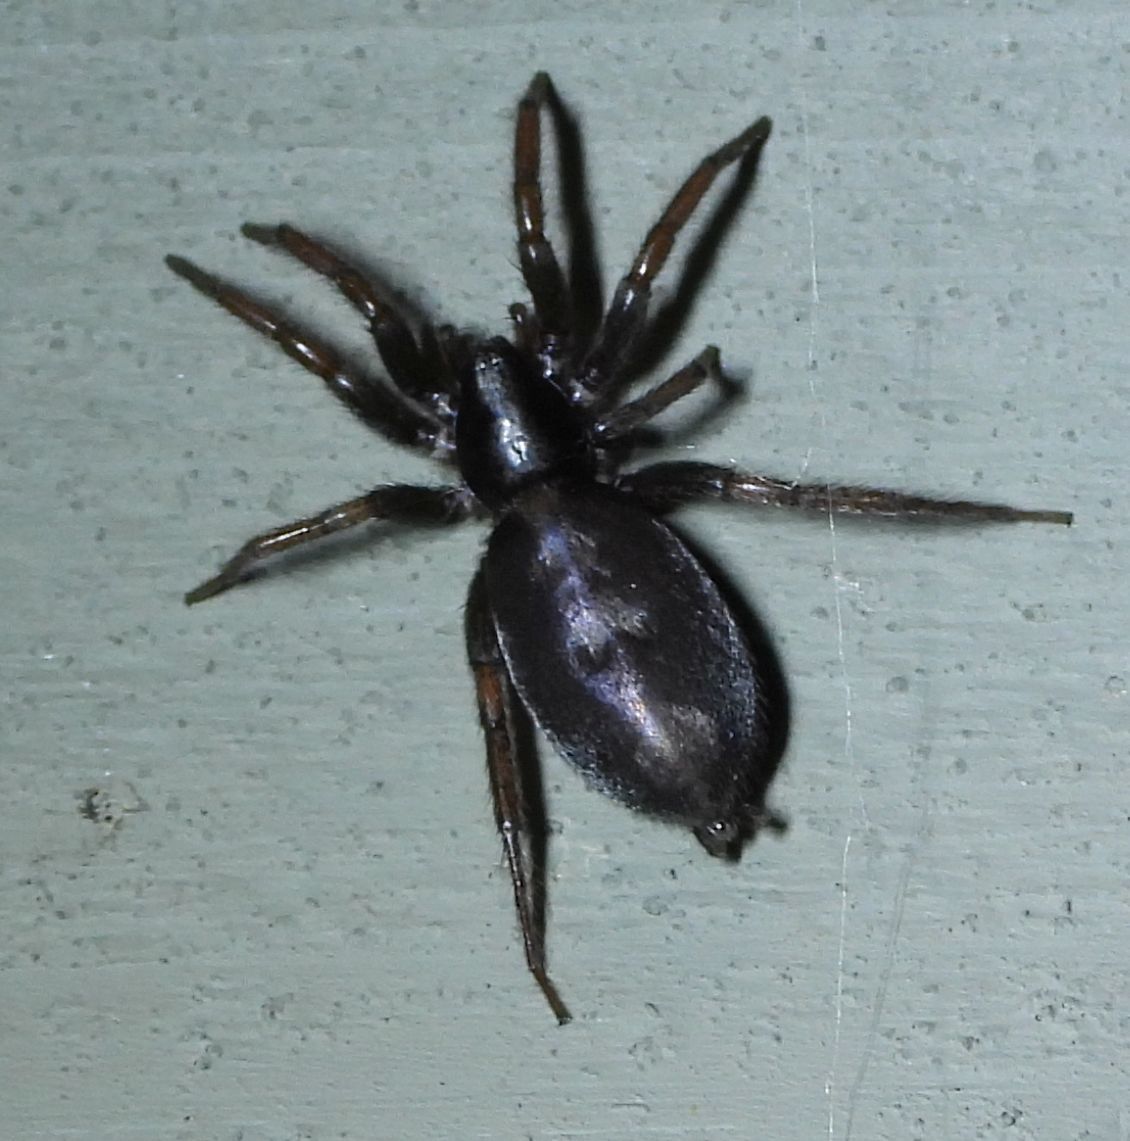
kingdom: Animalia
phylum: Arthropoda
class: Arachnida
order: Araneae
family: Gnaphosidae
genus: Herpyllus
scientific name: Herpyllus ecclesiasticus
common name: Eastern parson spider
